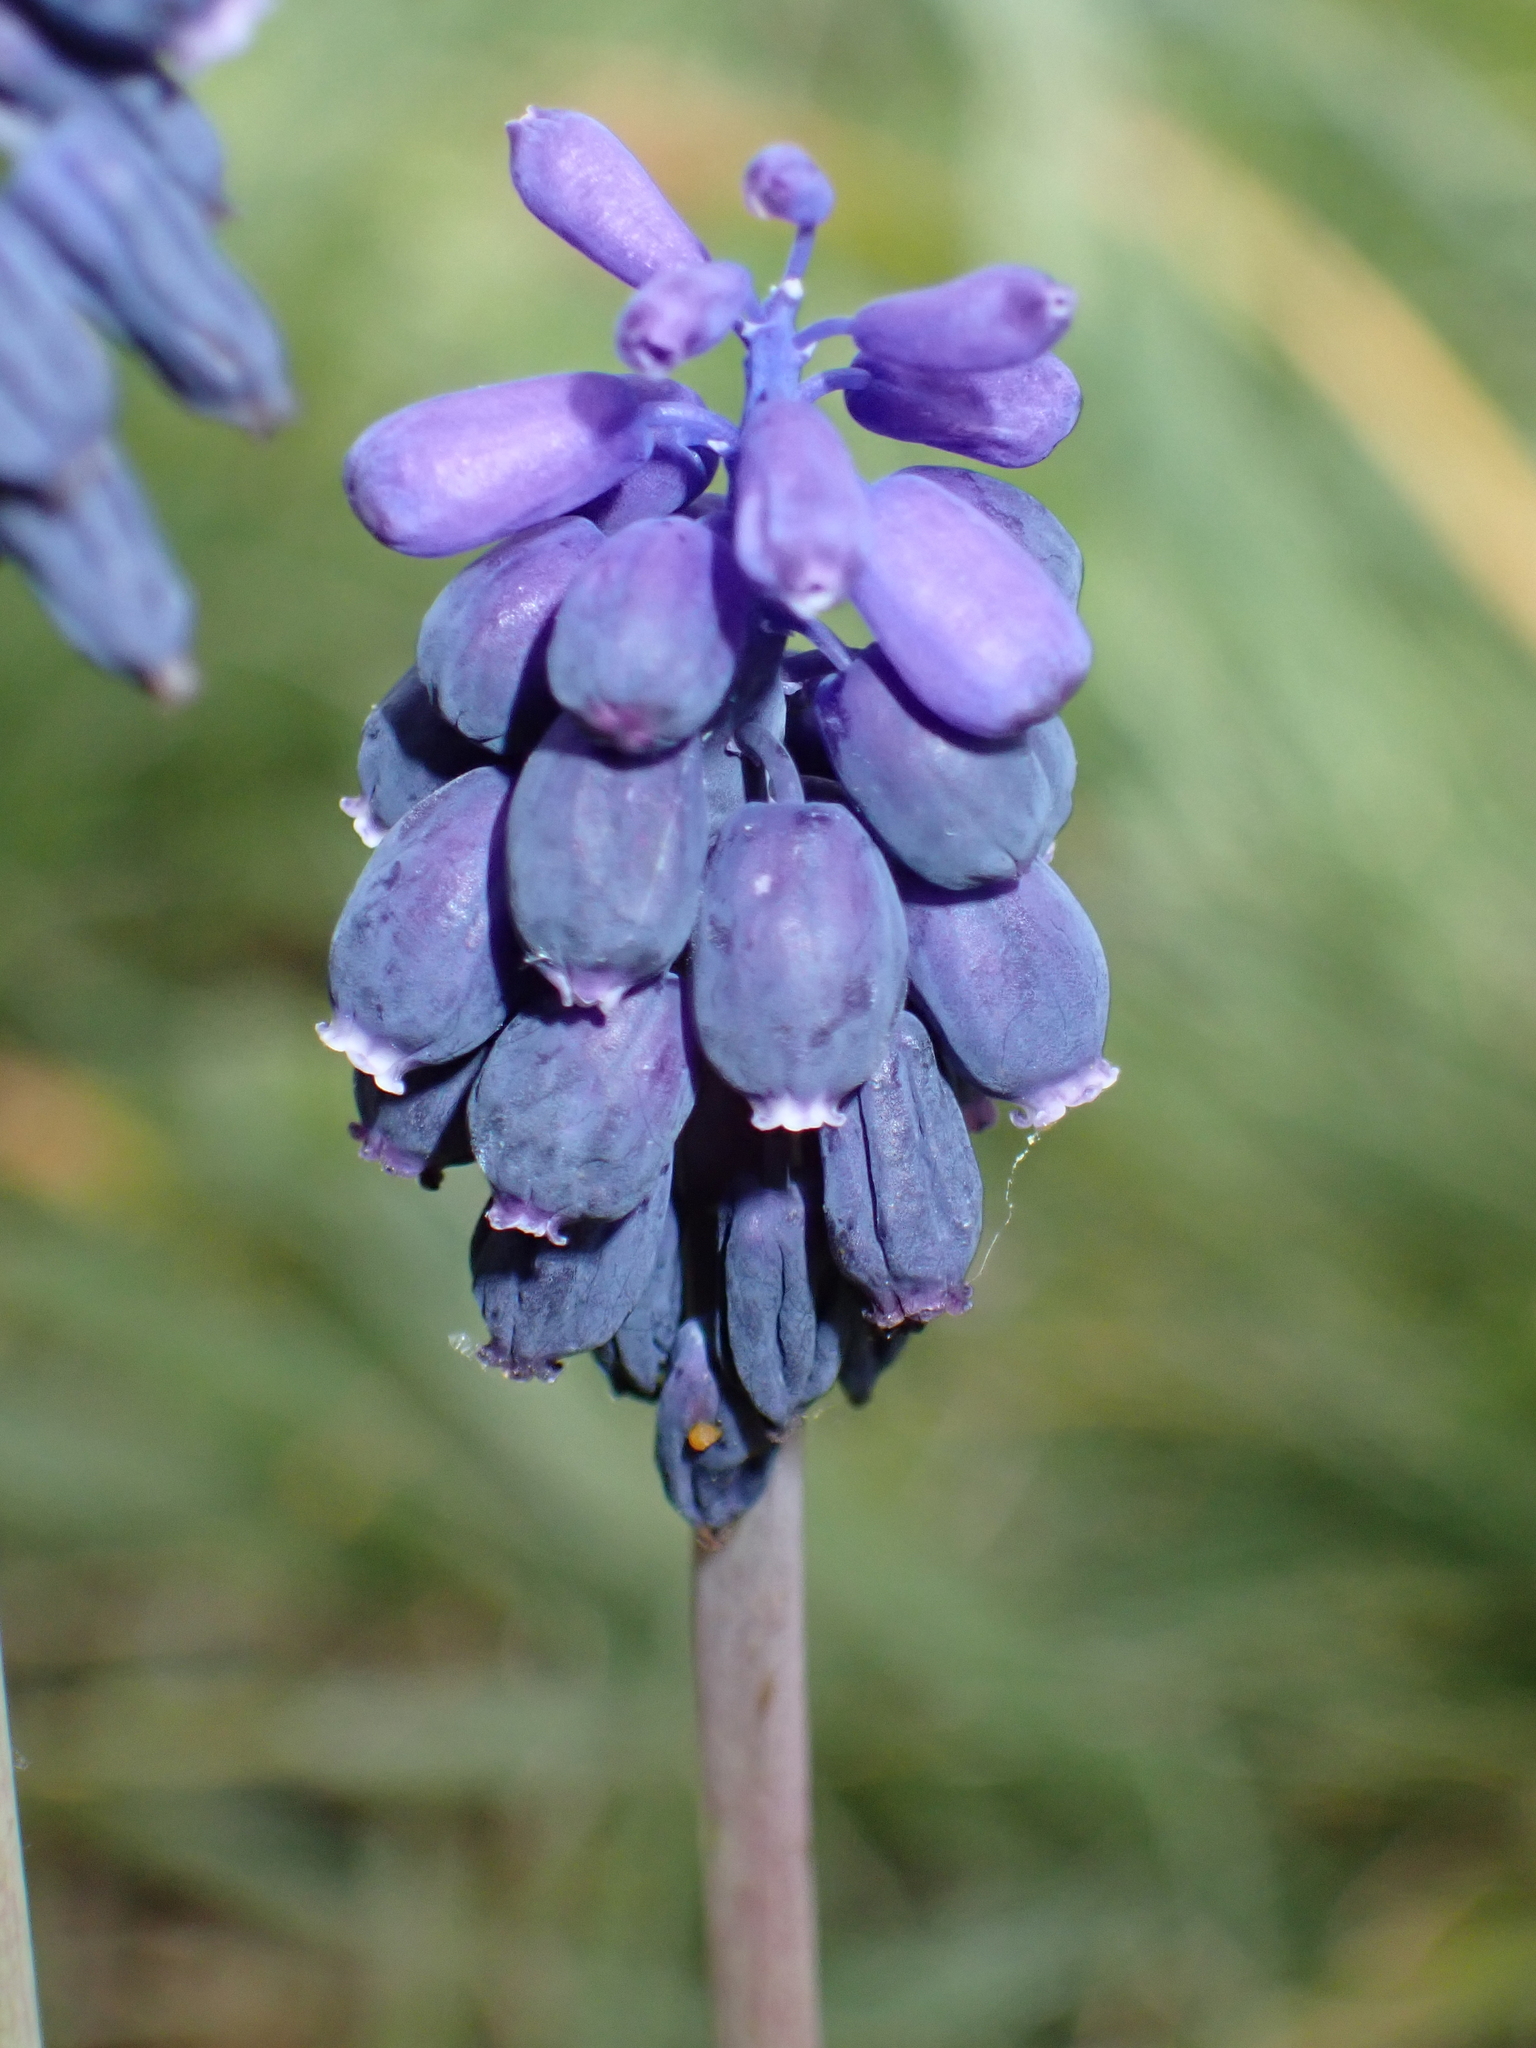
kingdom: Plantae
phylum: Tracheophyta
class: Liliopsida
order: Asparagales
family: Asparagaceae
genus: Muscari
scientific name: Muscari neglectum
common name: Grape-hyacinth
